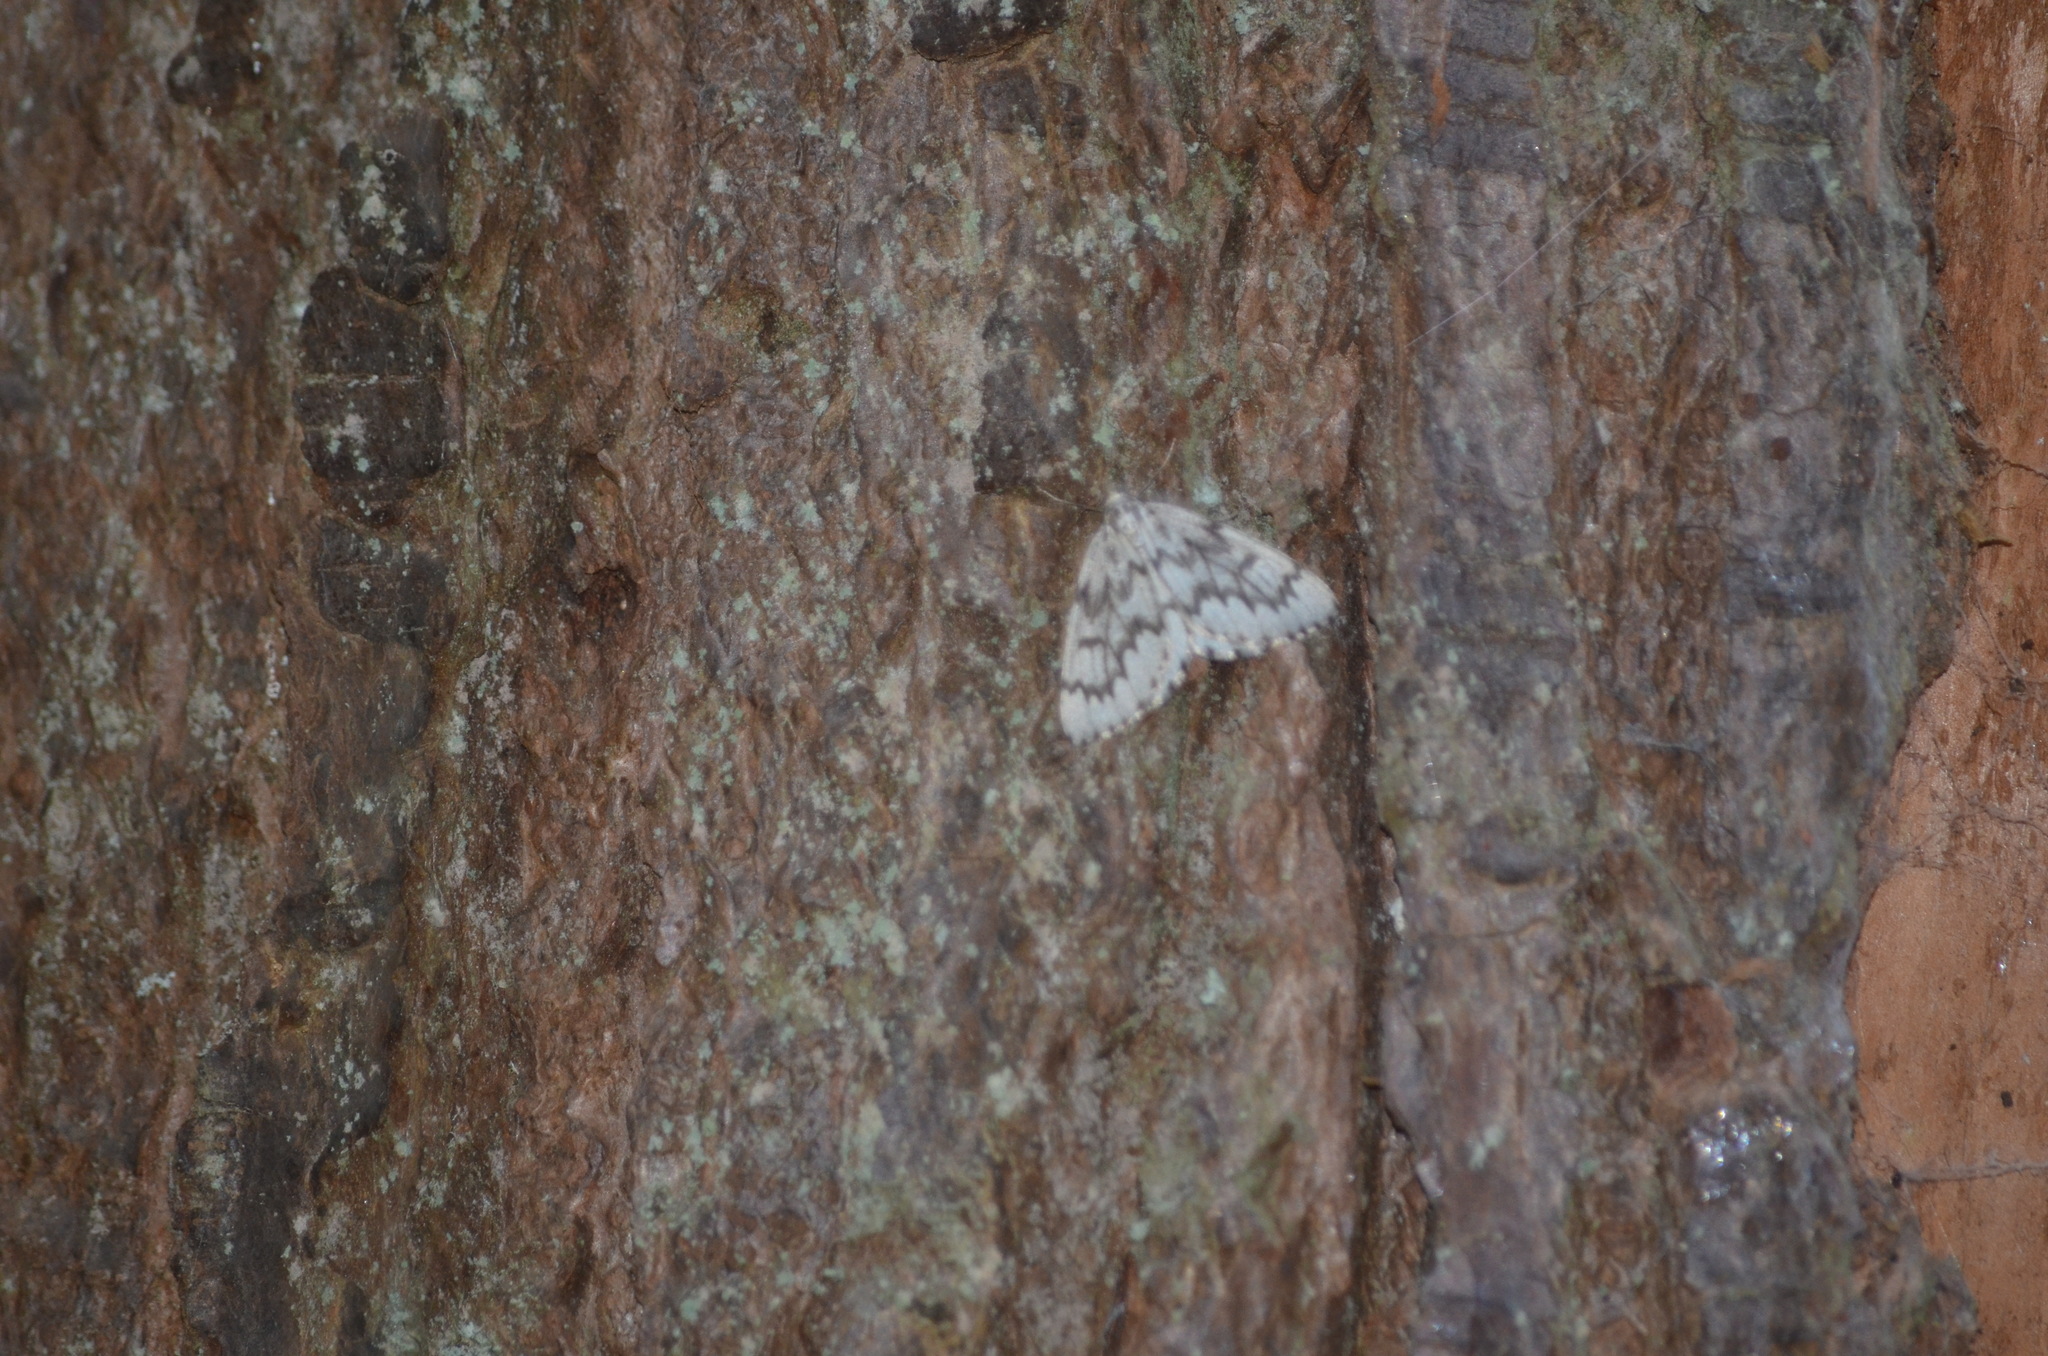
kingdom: Animalia
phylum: Arthropoda
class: Insecta
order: Lepidoptera
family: Geometridae
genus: Nepytia
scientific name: Nepytia phantasmaria
